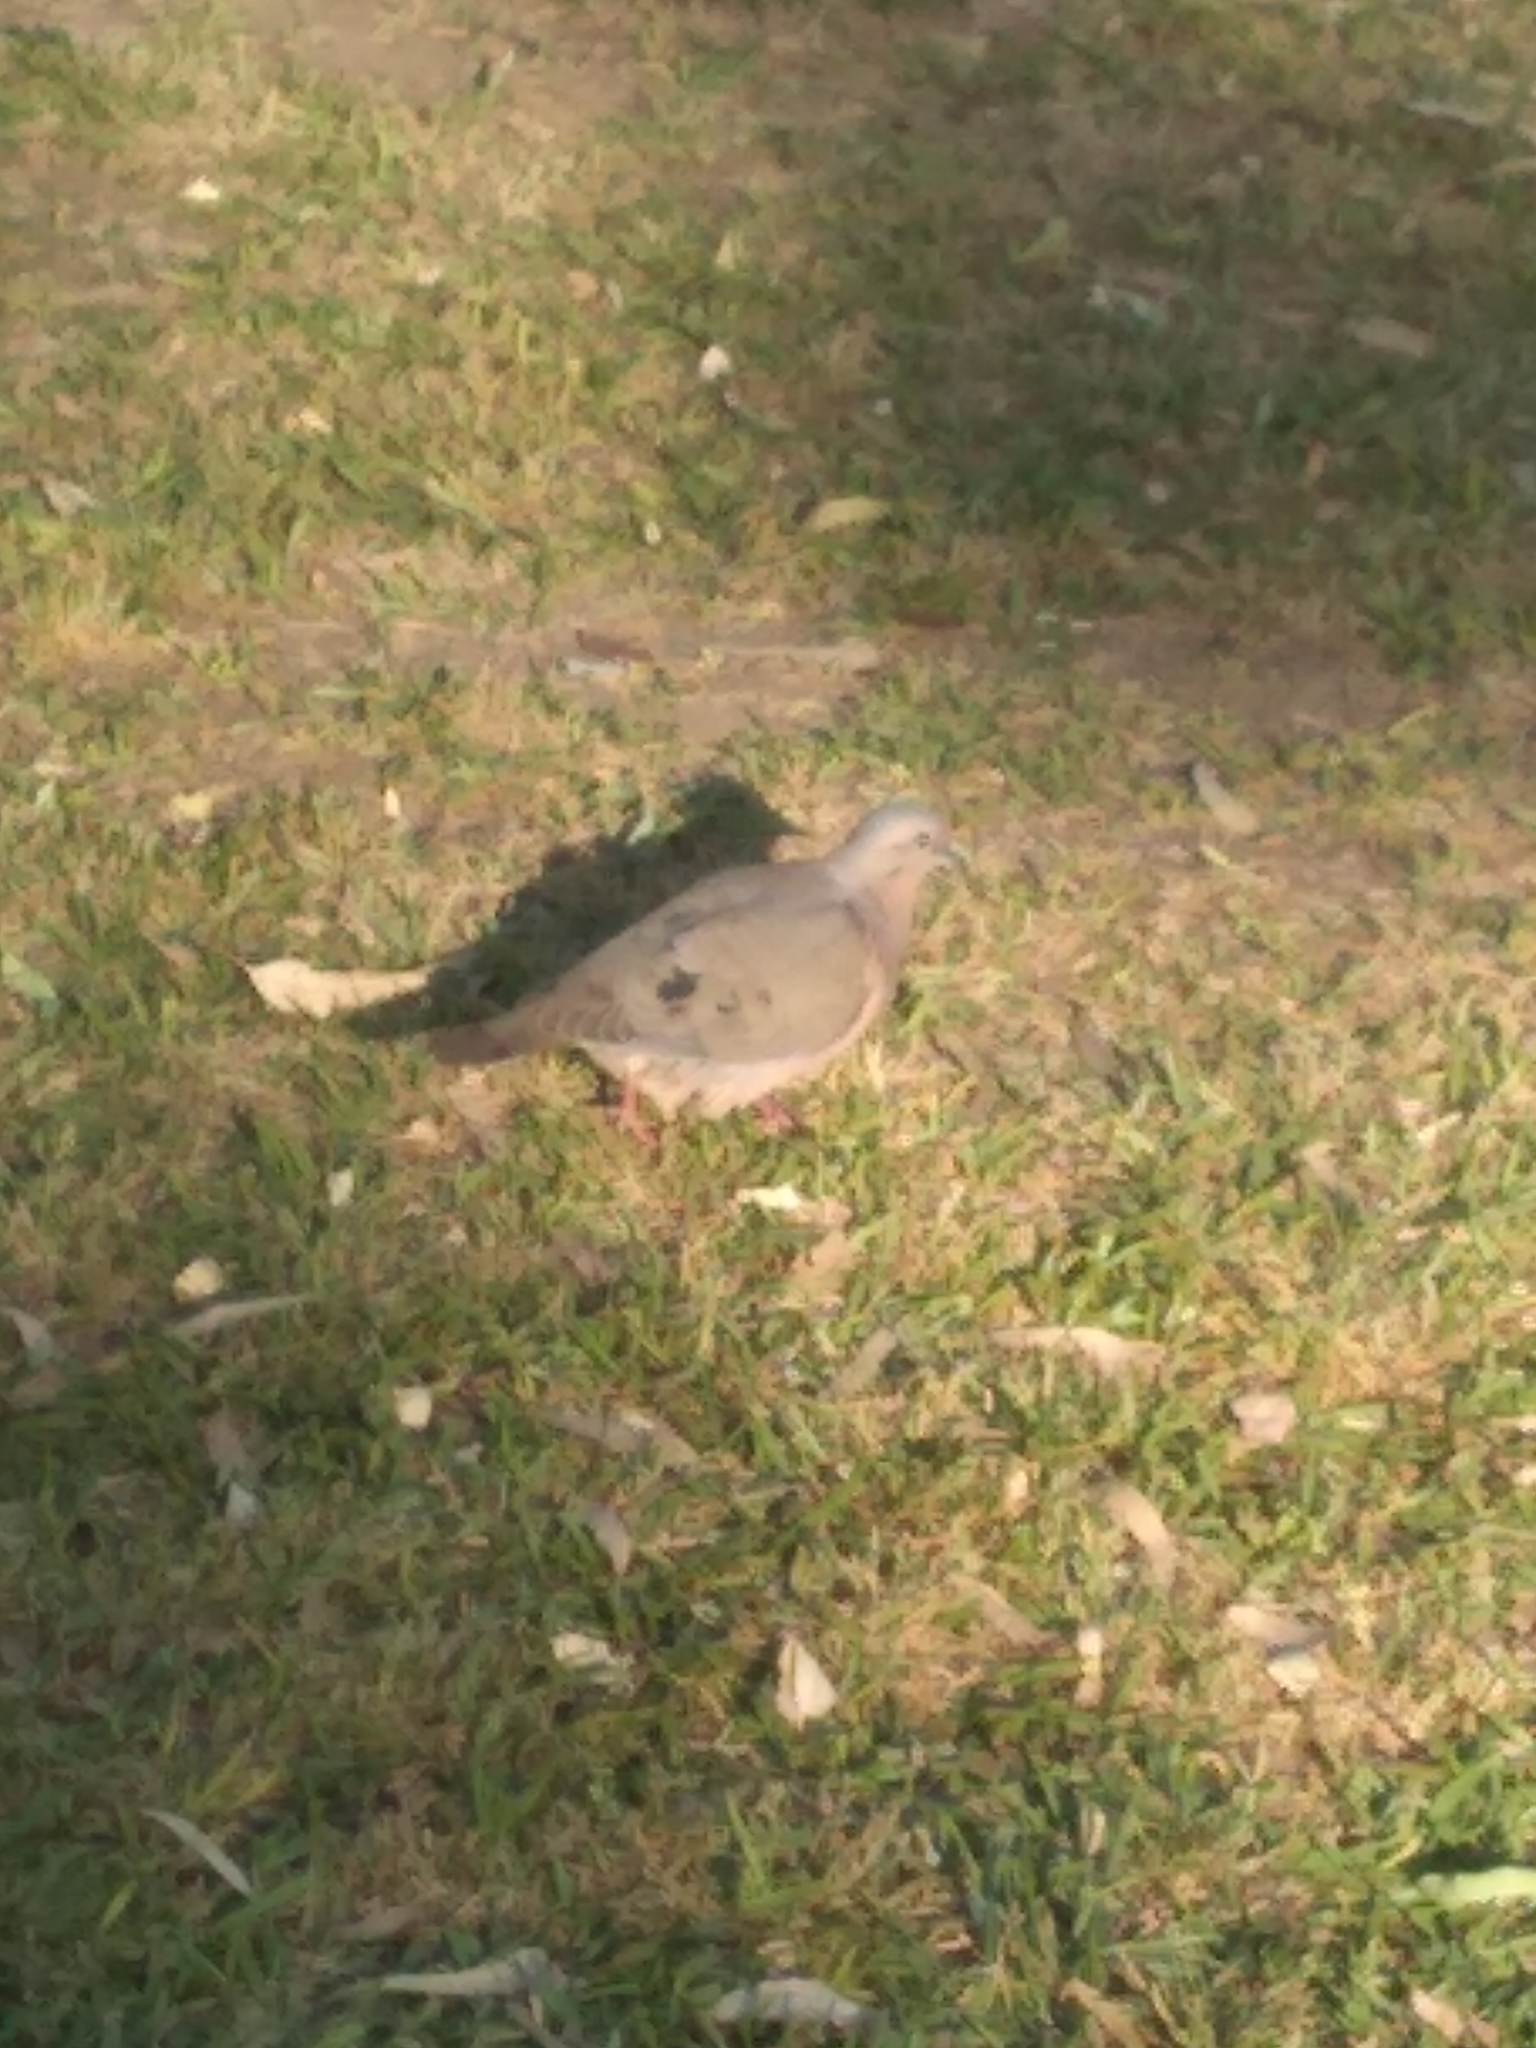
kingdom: Animalia
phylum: Chordata
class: Aves
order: Columbiformes
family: Columbidae
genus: Zenaida
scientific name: Zenaida auriculata
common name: Eared dove
